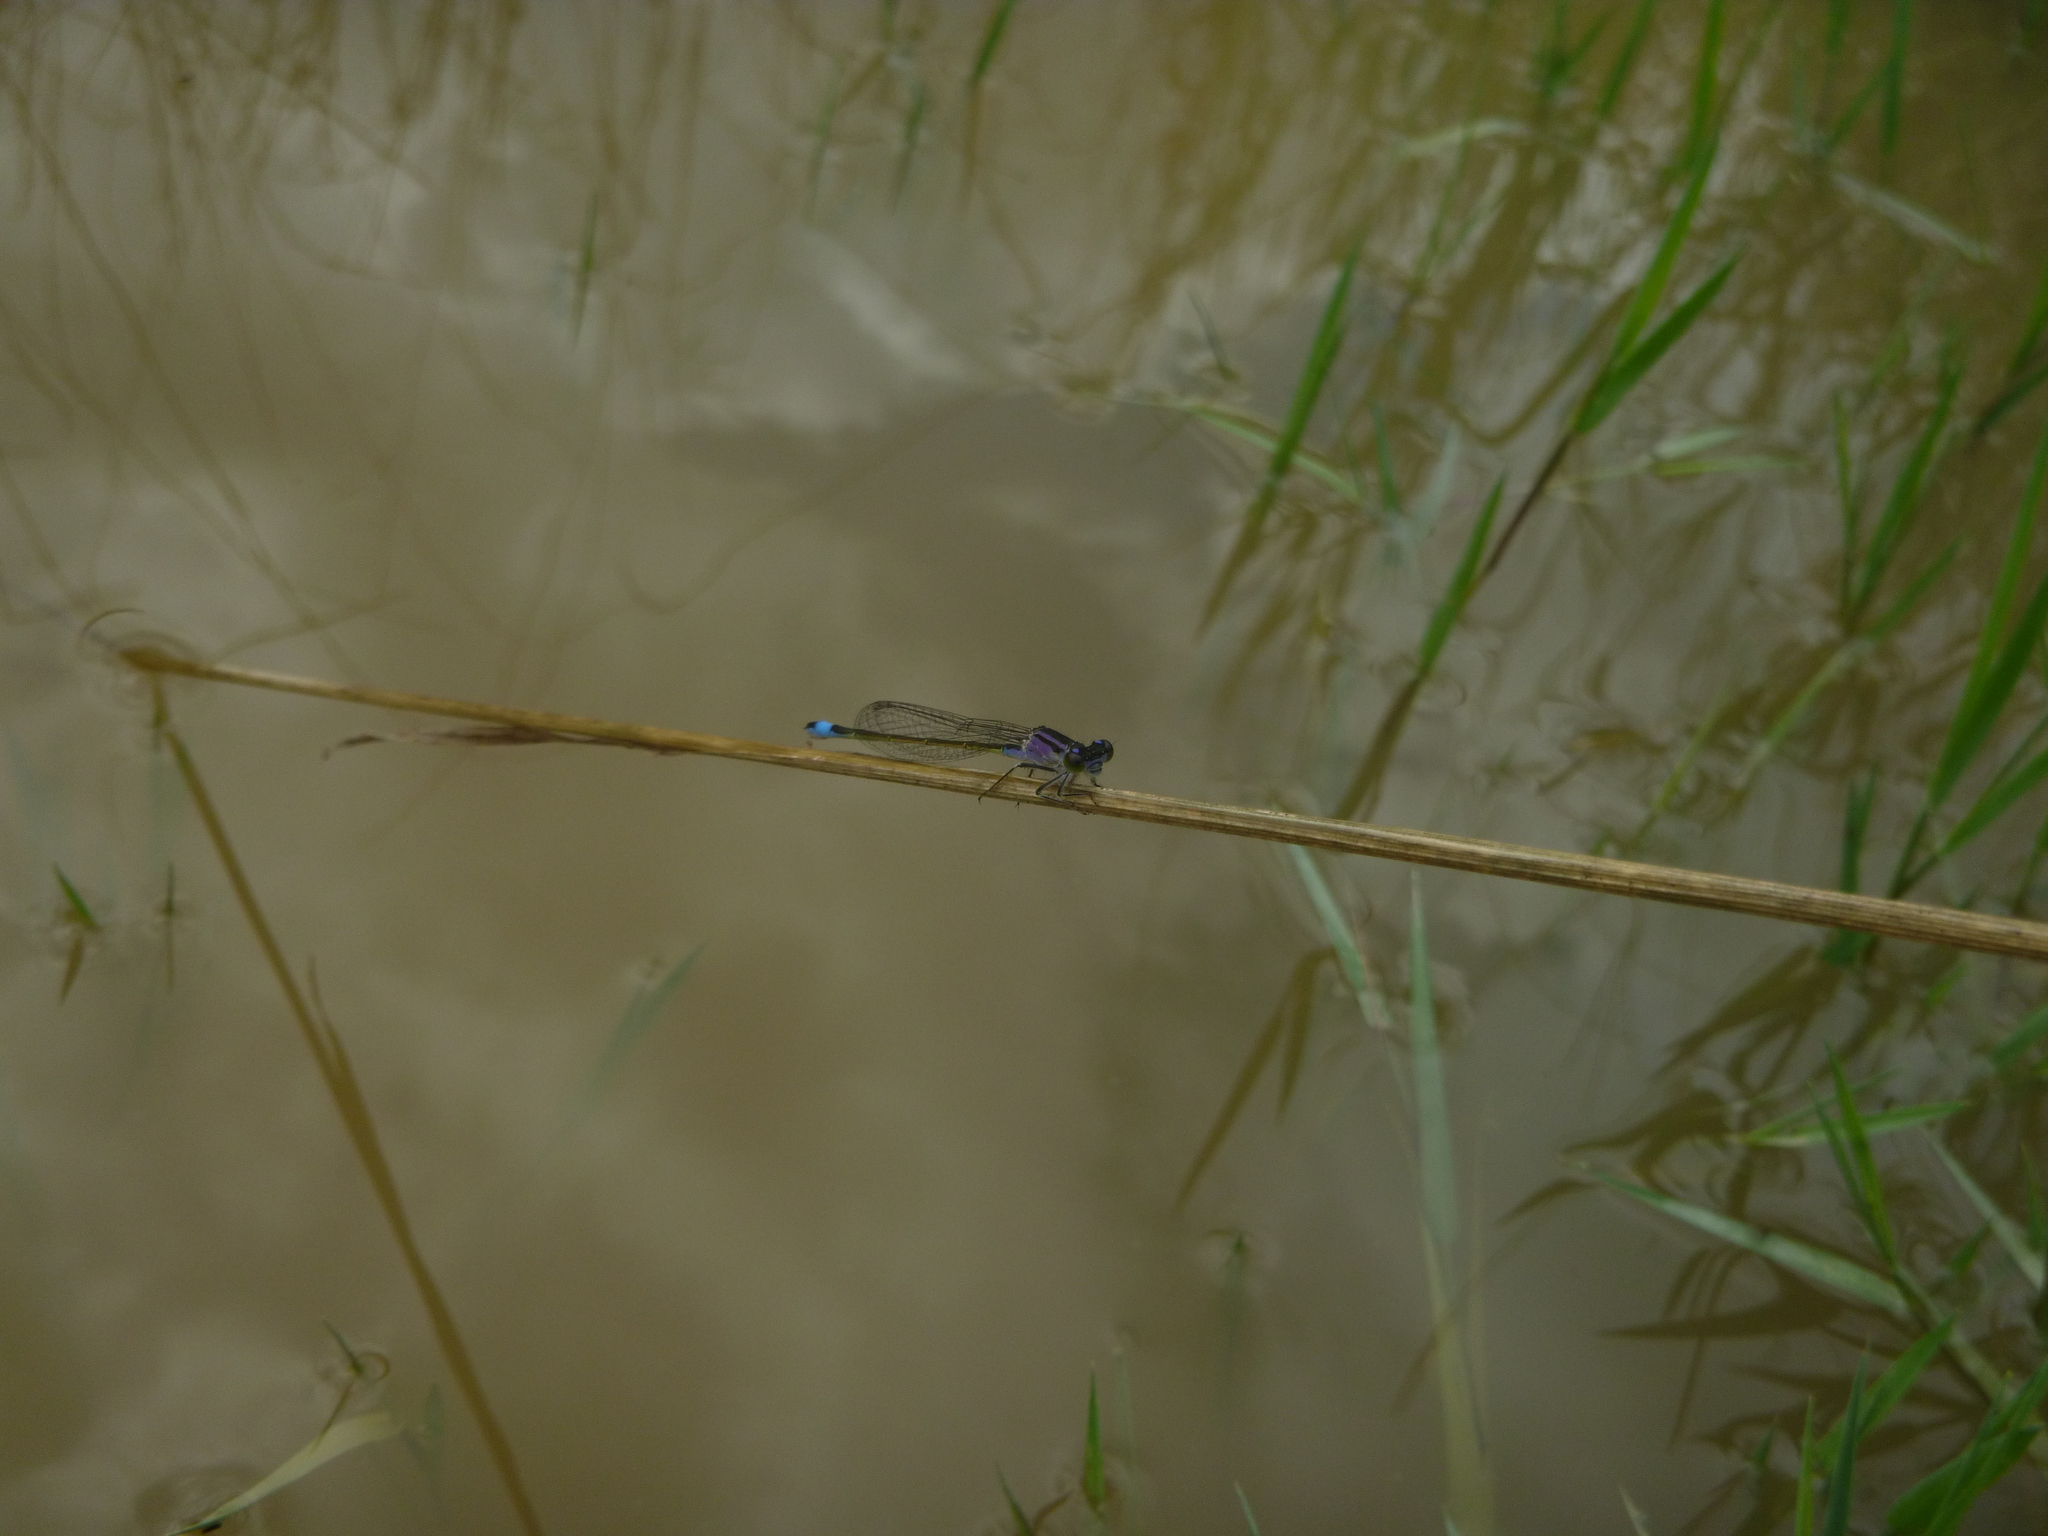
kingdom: Animalia
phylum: Arthropoda
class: Insecta
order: Odonata
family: Coenagrionidae
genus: Ischnura
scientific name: Ischnura elegans
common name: Blue-tailed damselfly
